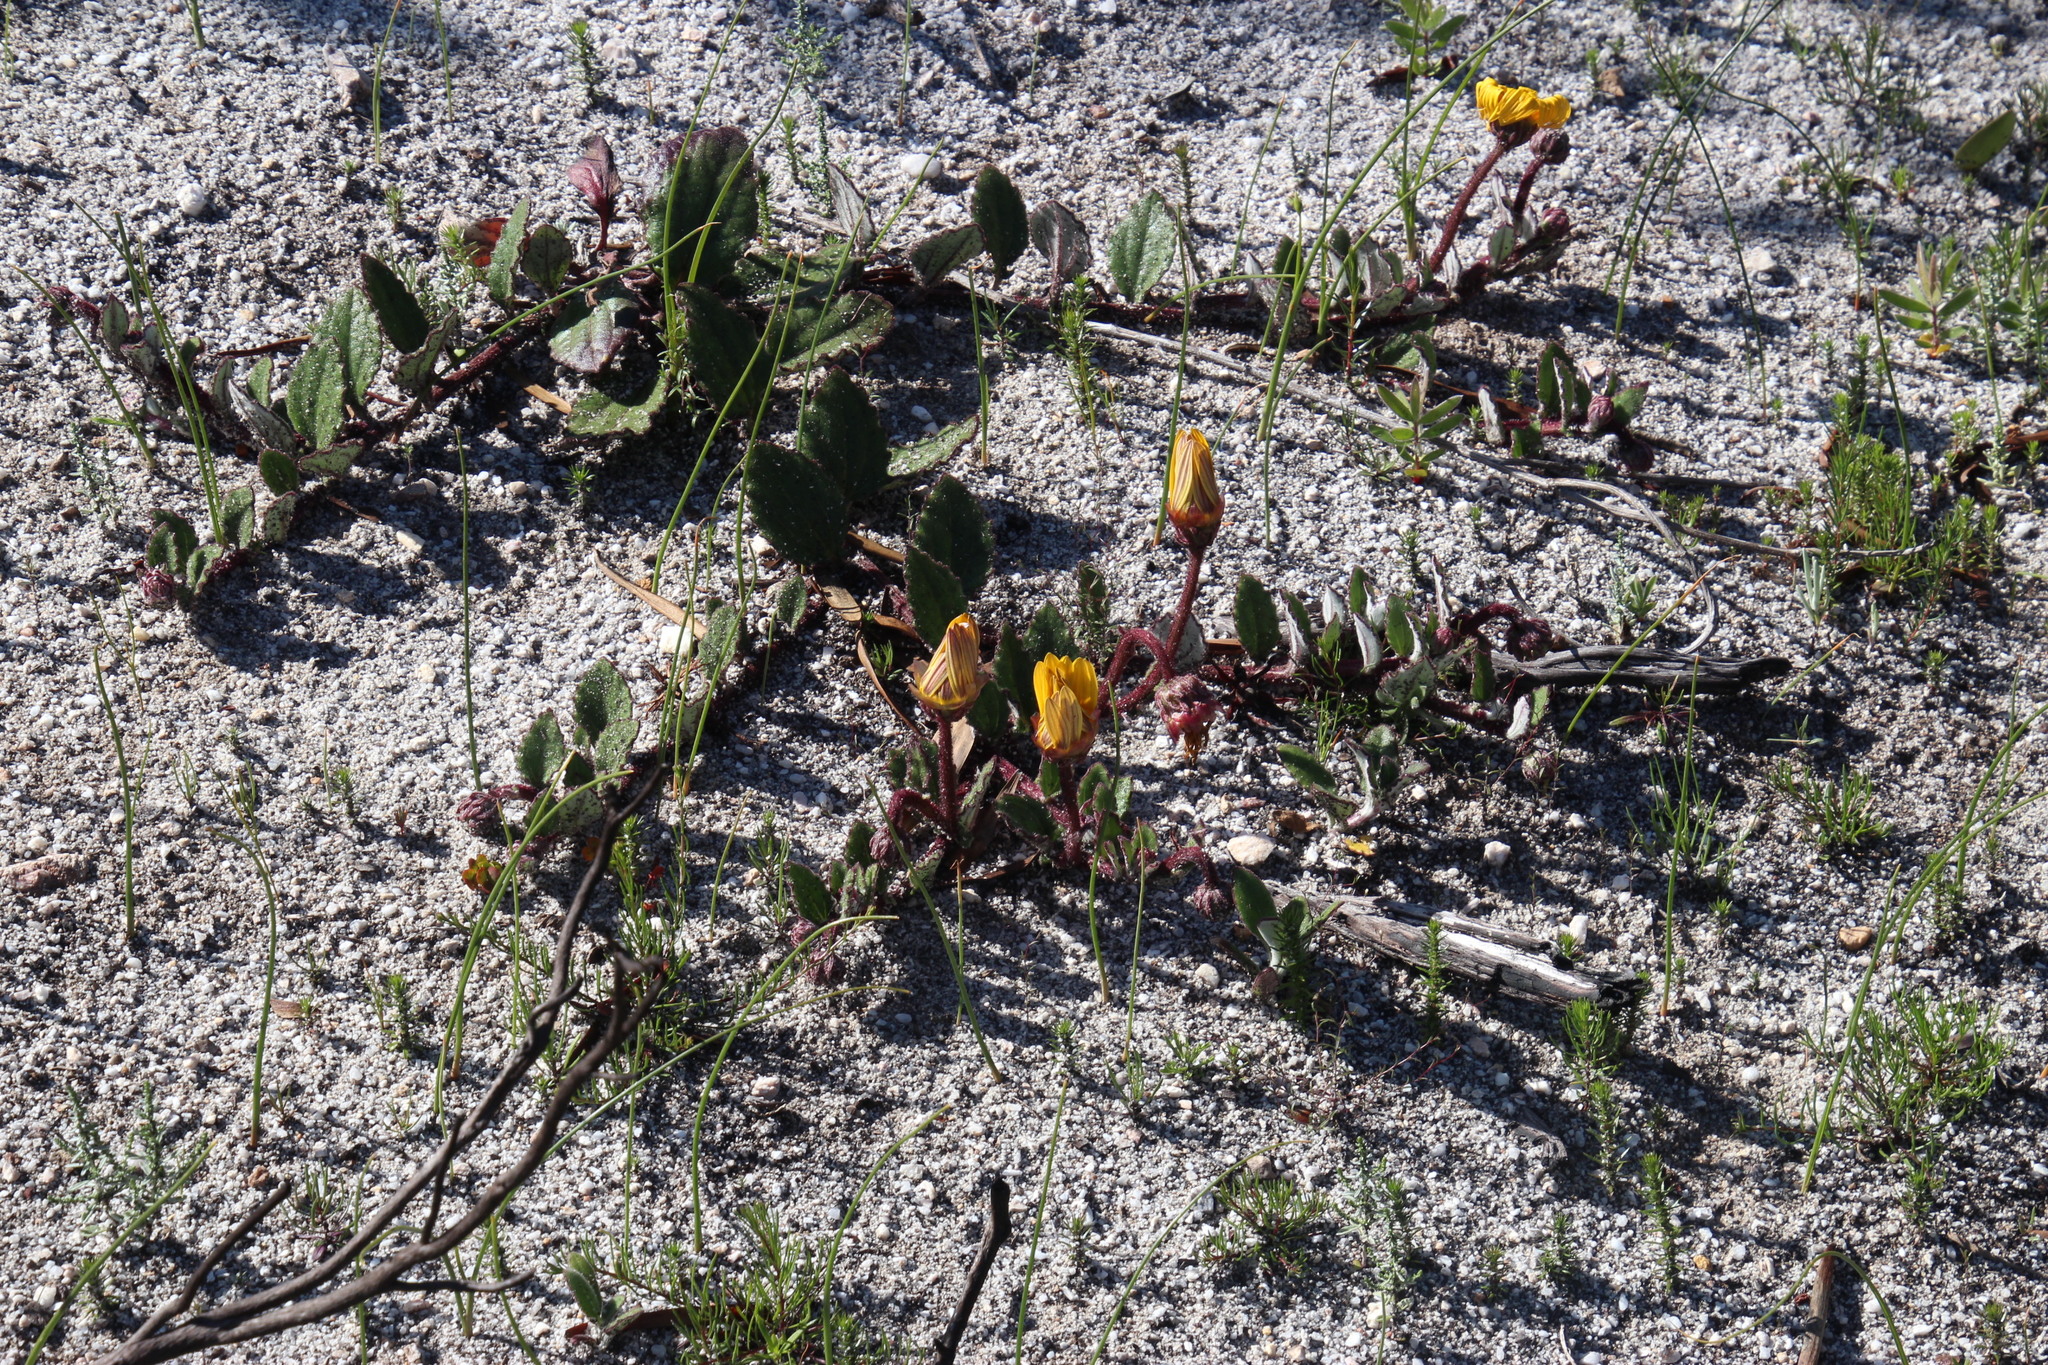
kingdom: Plantae
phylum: Tracheophyta
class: Magnoliopsida
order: Asterales
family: Asteraceae
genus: Arctotis
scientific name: Arctotis angustifolia
